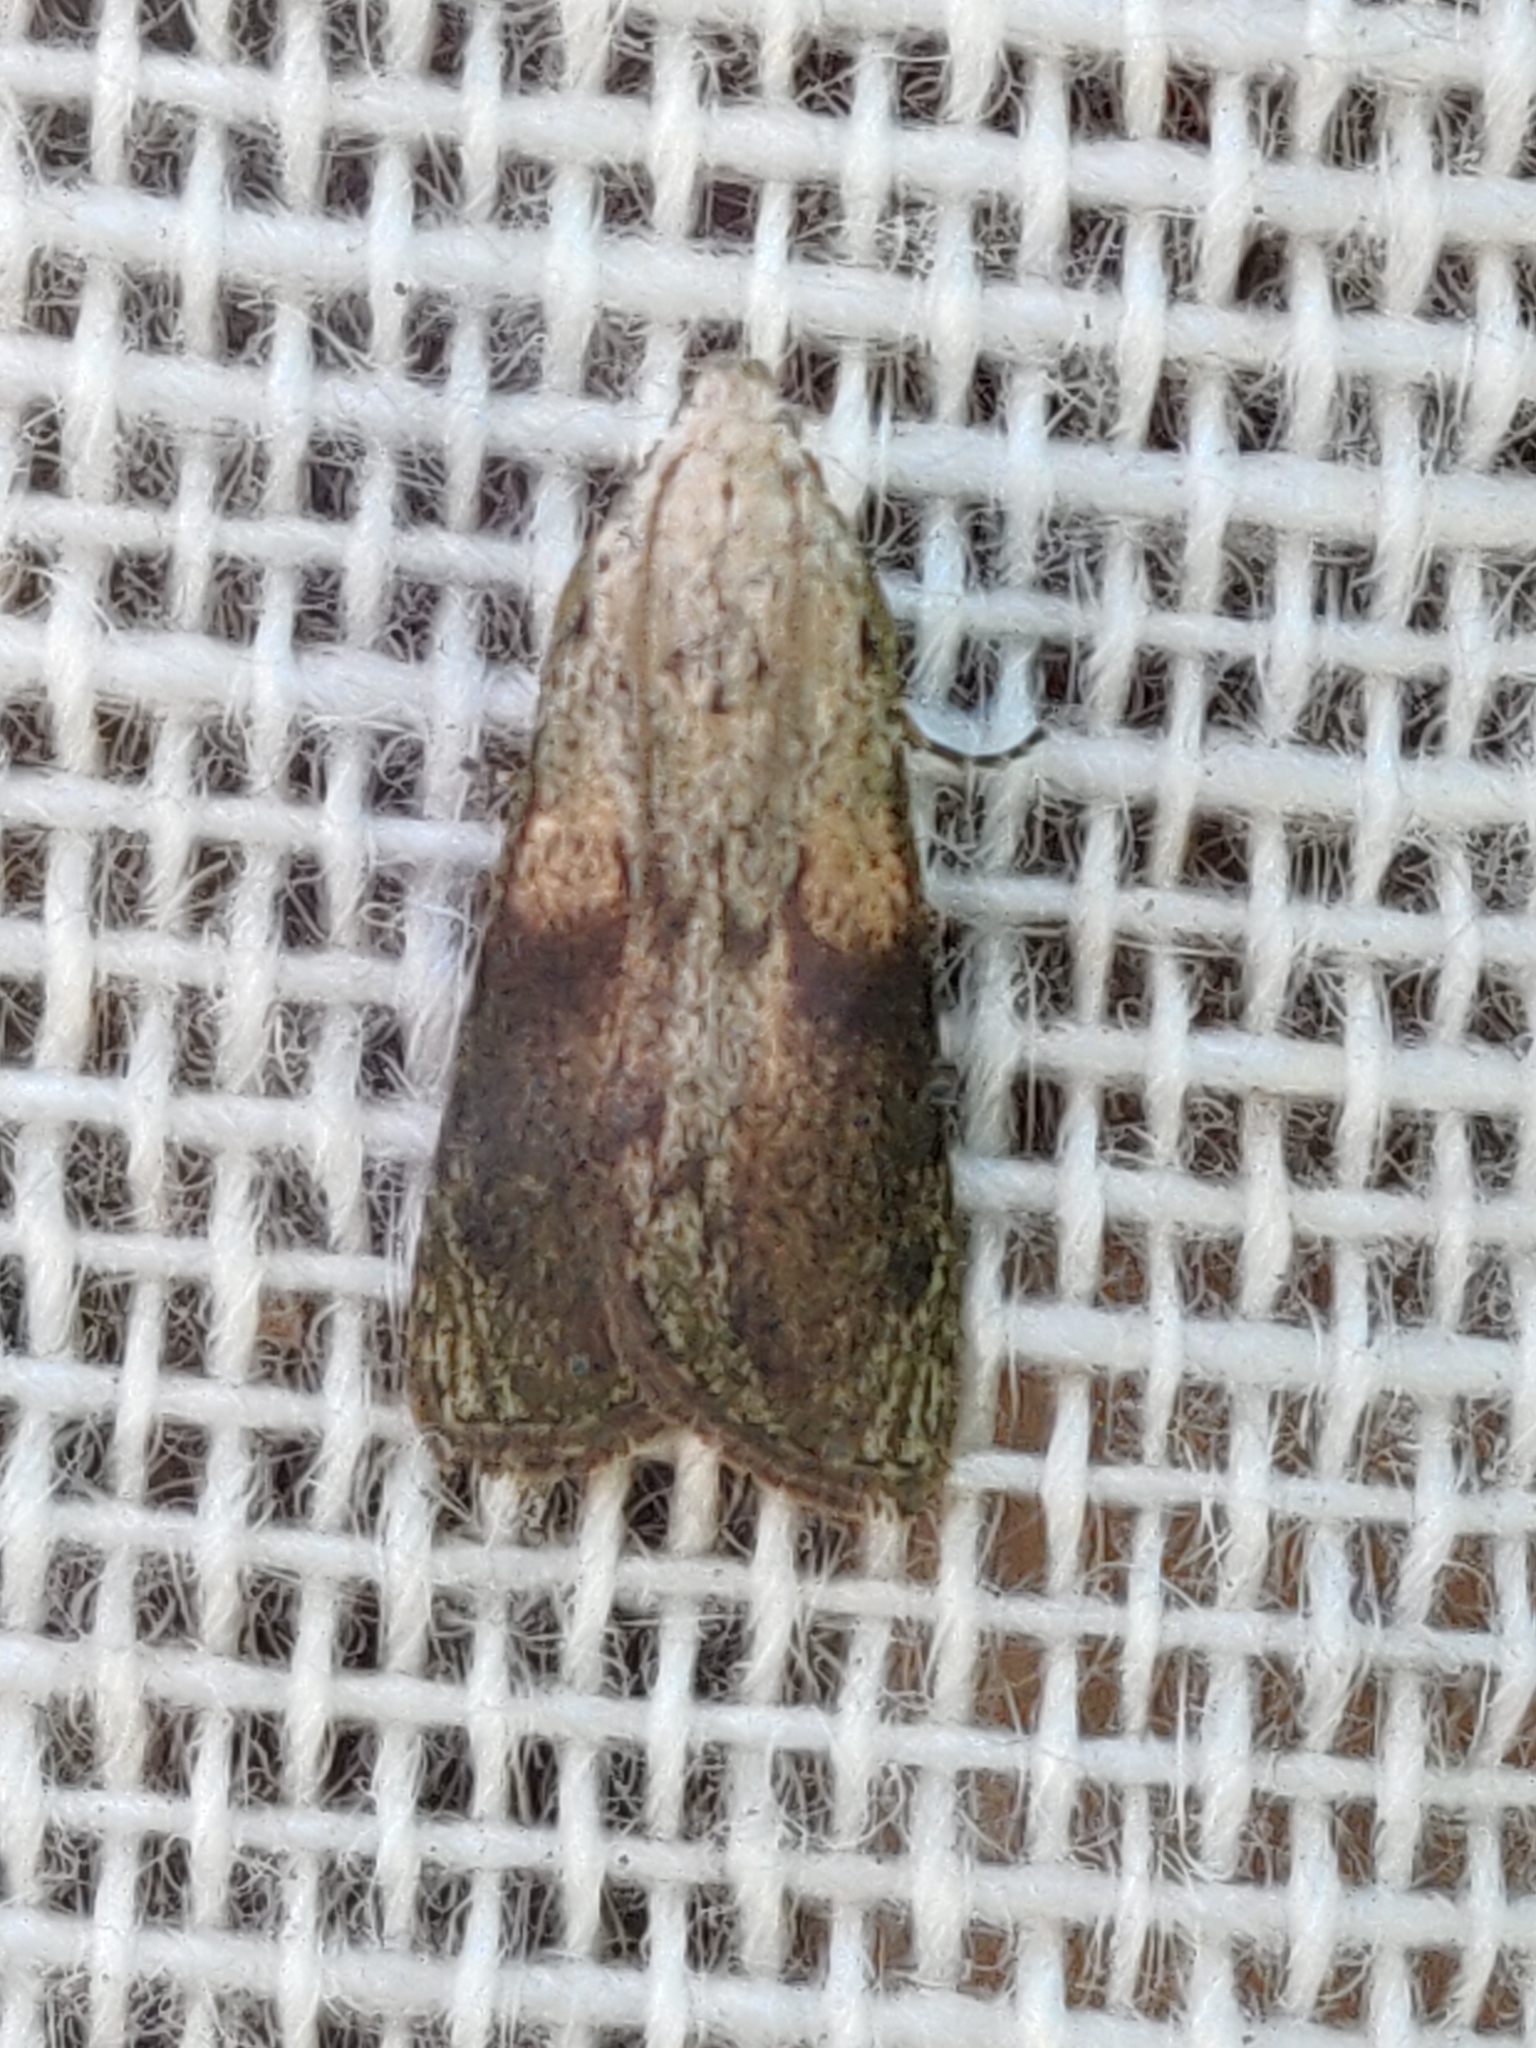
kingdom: Animalia
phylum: Arthropoda
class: Insecta
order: Lepidoptera
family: Pyralidae
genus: Aphomia
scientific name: Aphomia sociella
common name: Bee moth
